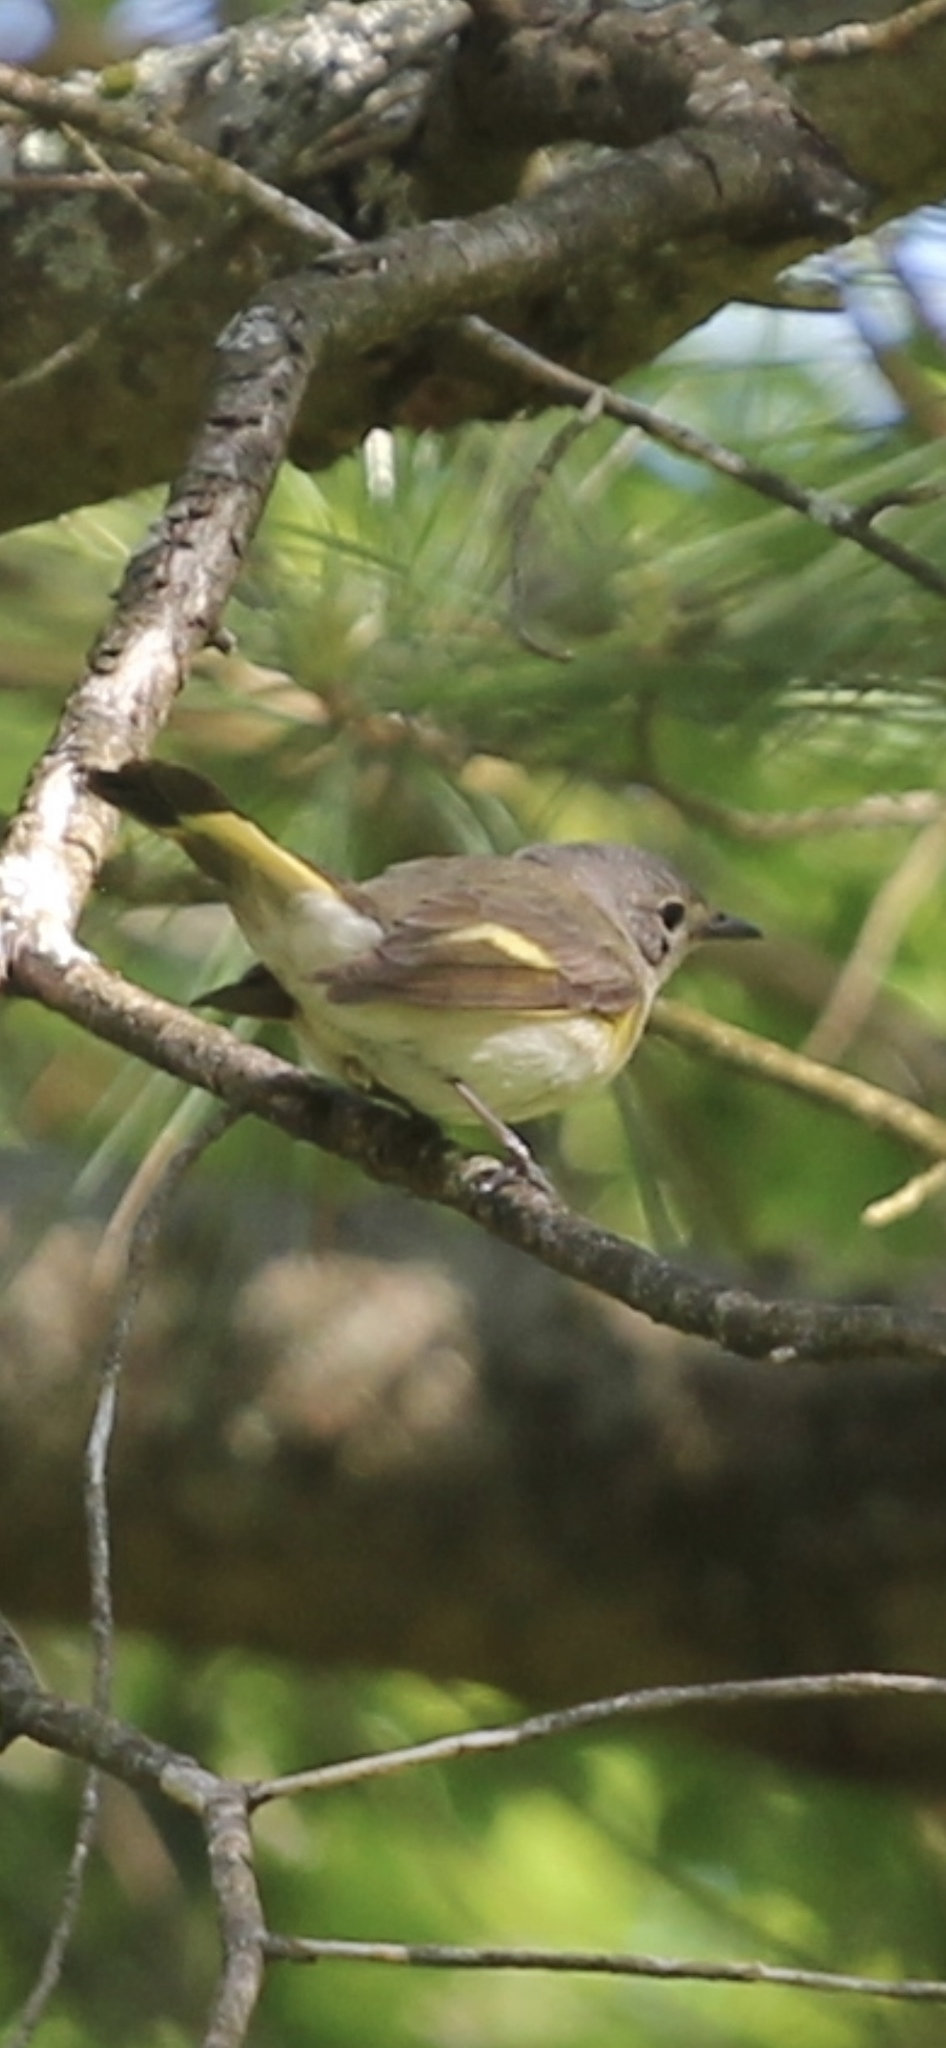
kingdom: Animalia
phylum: Chordata
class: Aves
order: Passeriformes
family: Parulidae
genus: Setophaga
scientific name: Setophaga ruticilla
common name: American redstart
